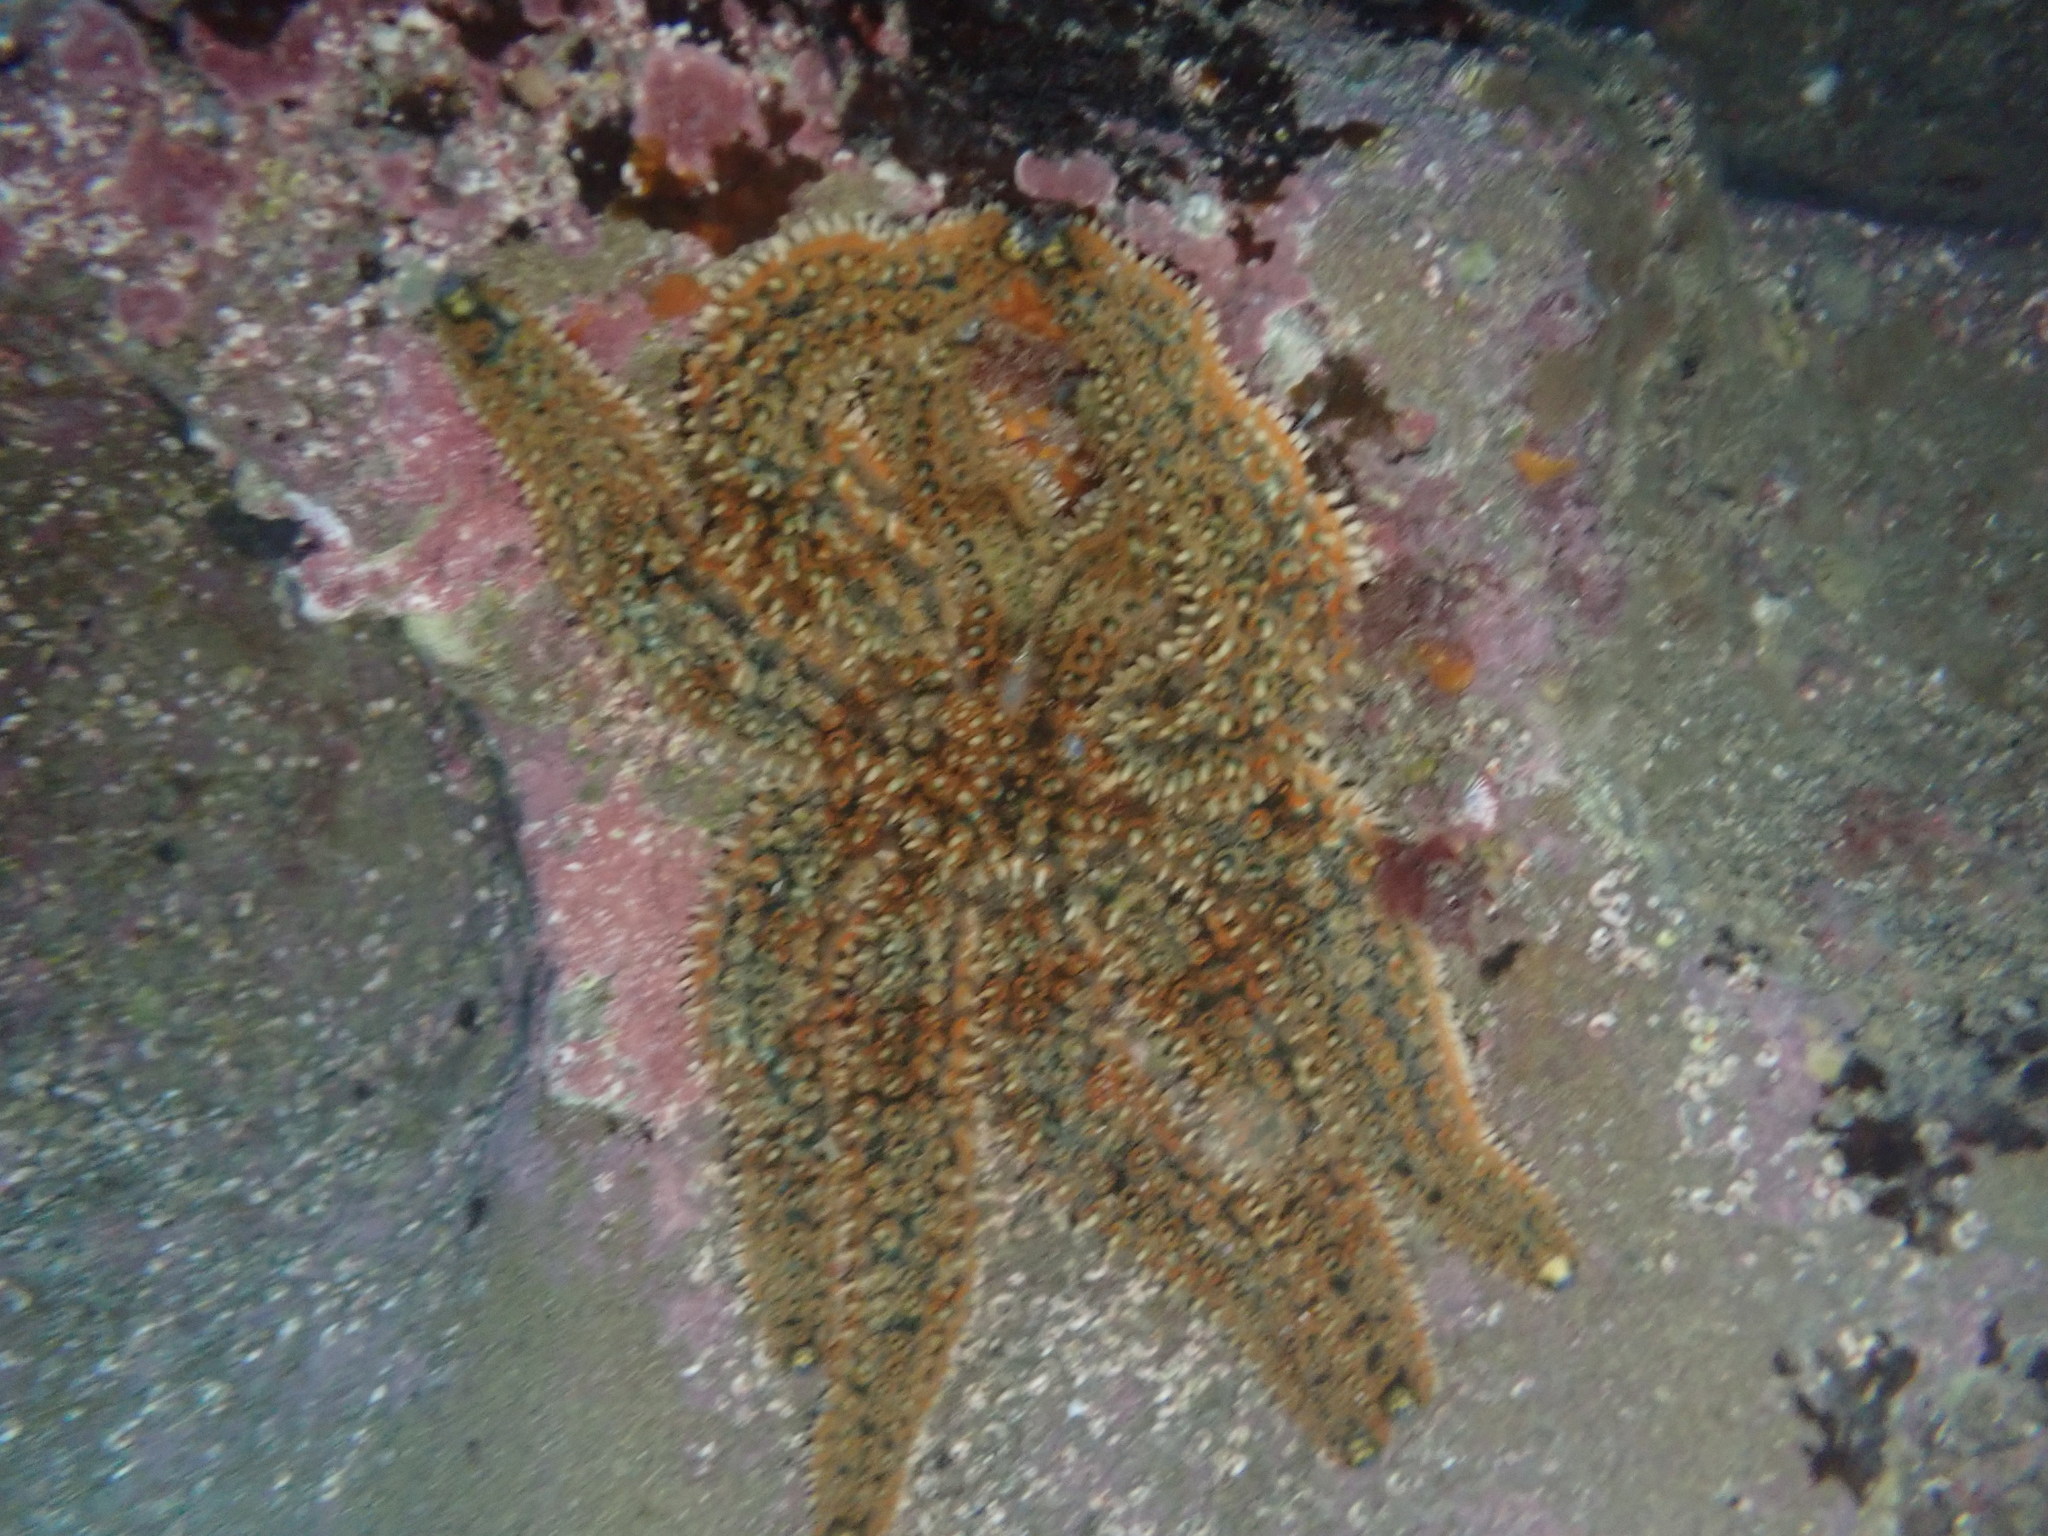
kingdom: Animalia
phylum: Echinodermata
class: Asteroidea
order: Forcipulatida
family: Asteriidae
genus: Coscinasterias
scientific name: Coscinasterias muricata
